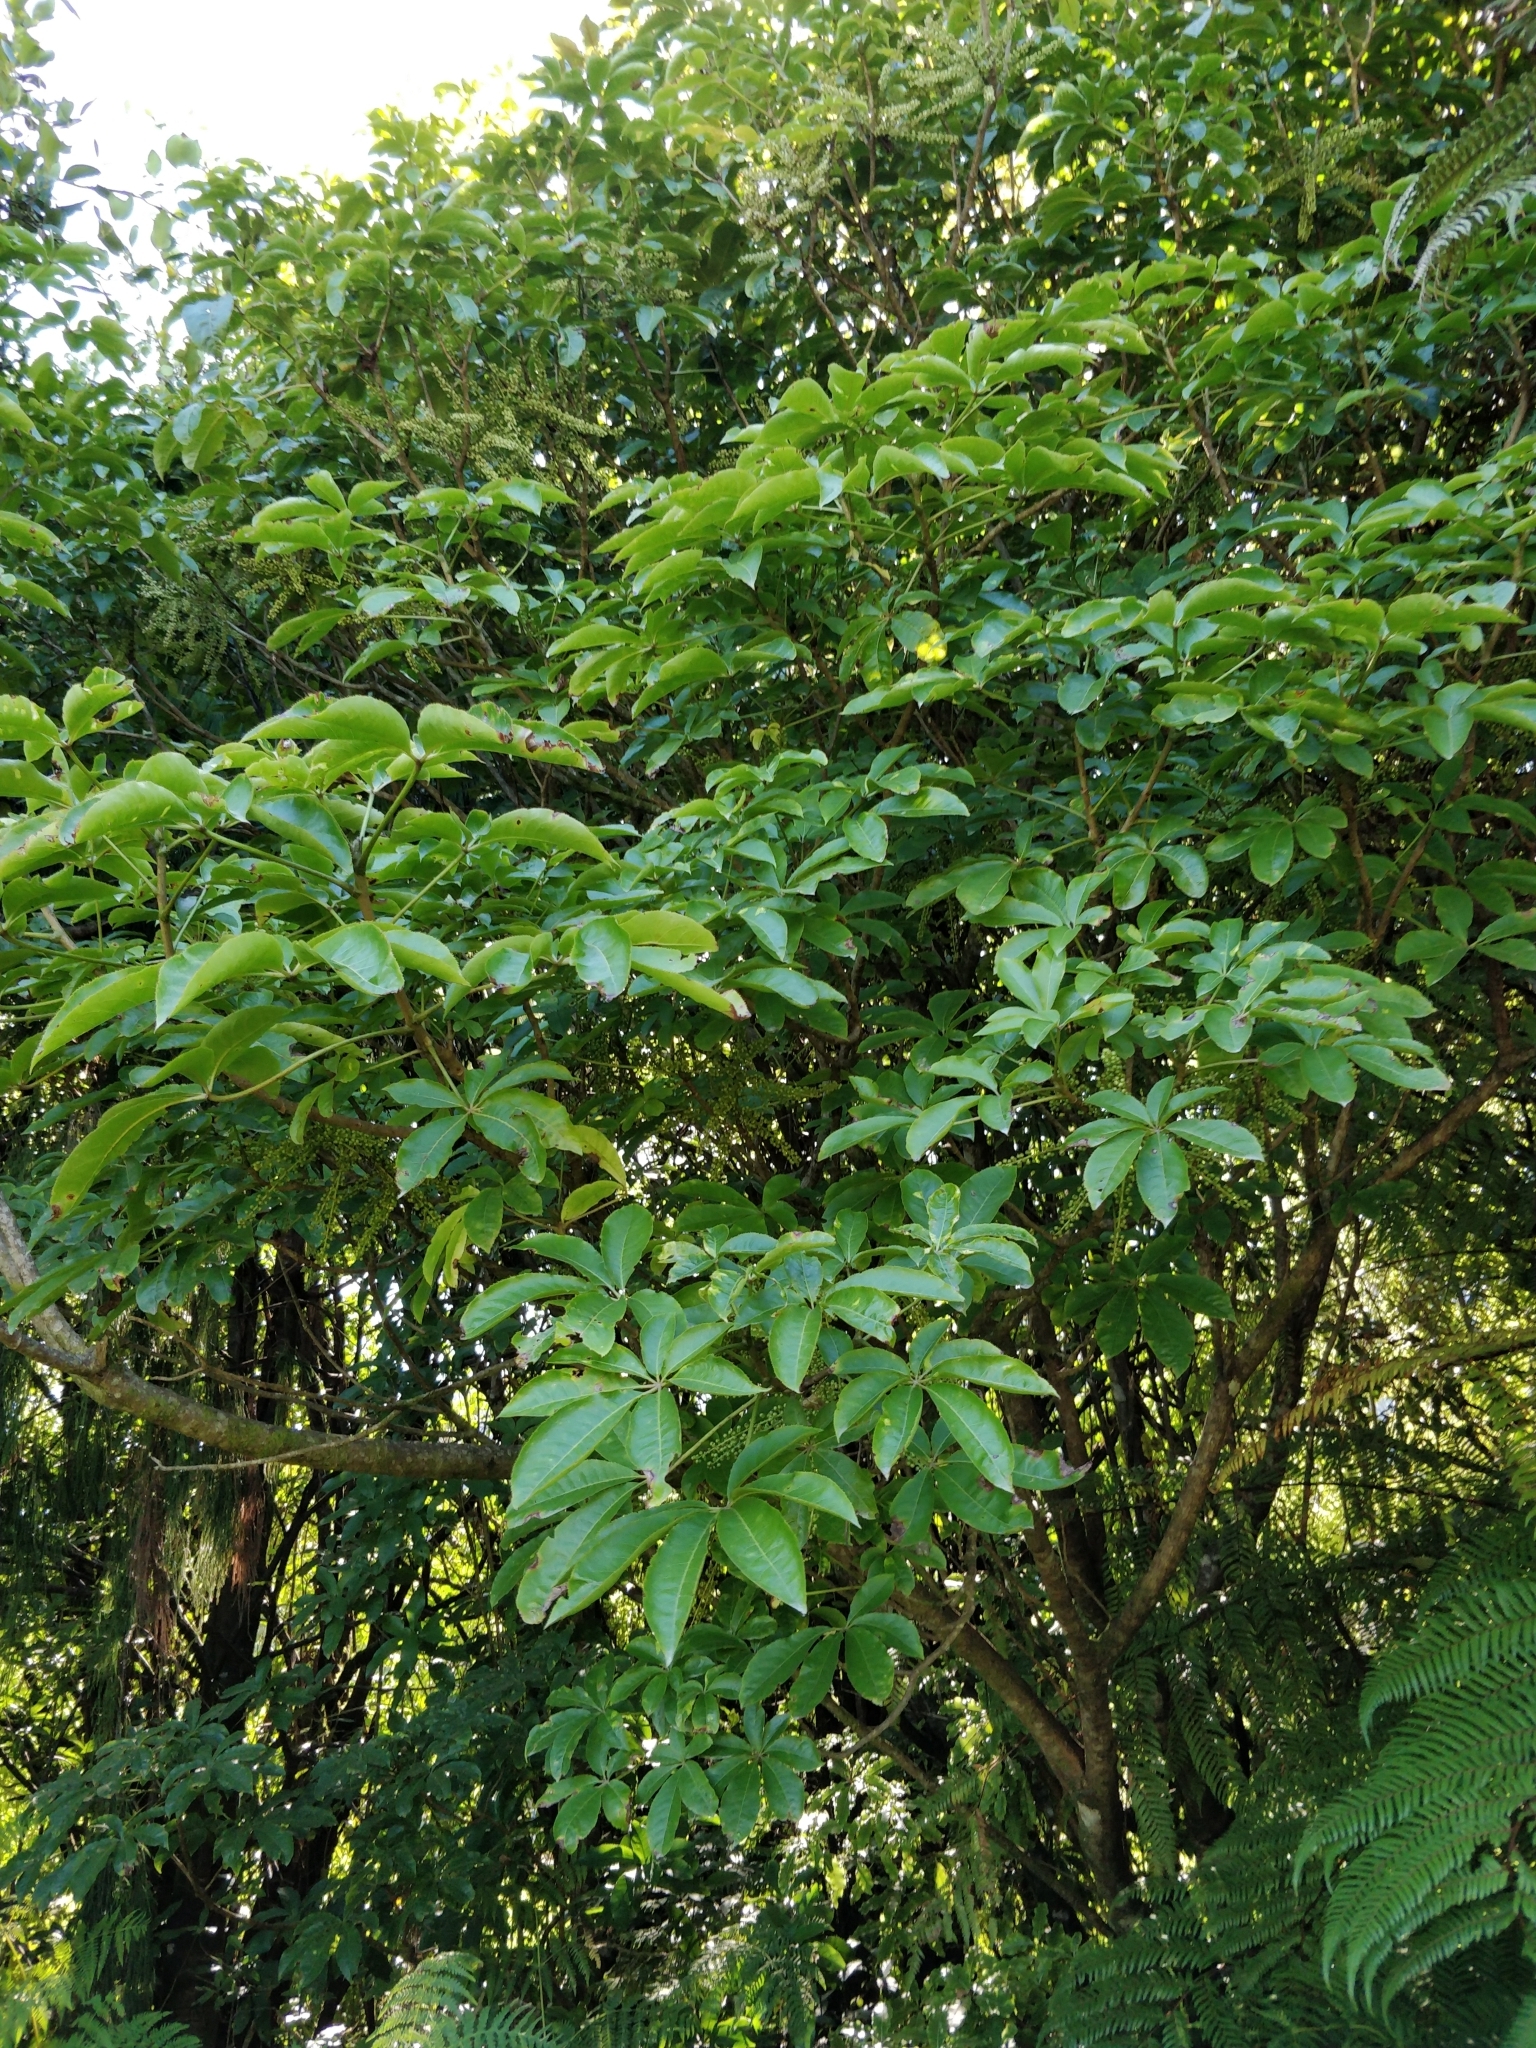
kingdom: Plantae
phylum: Tracheophyta
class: Magnoliopsida
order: Apiales
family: Araliaceae
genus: Schefflera
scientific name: Schefflera digitata
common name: Pate
